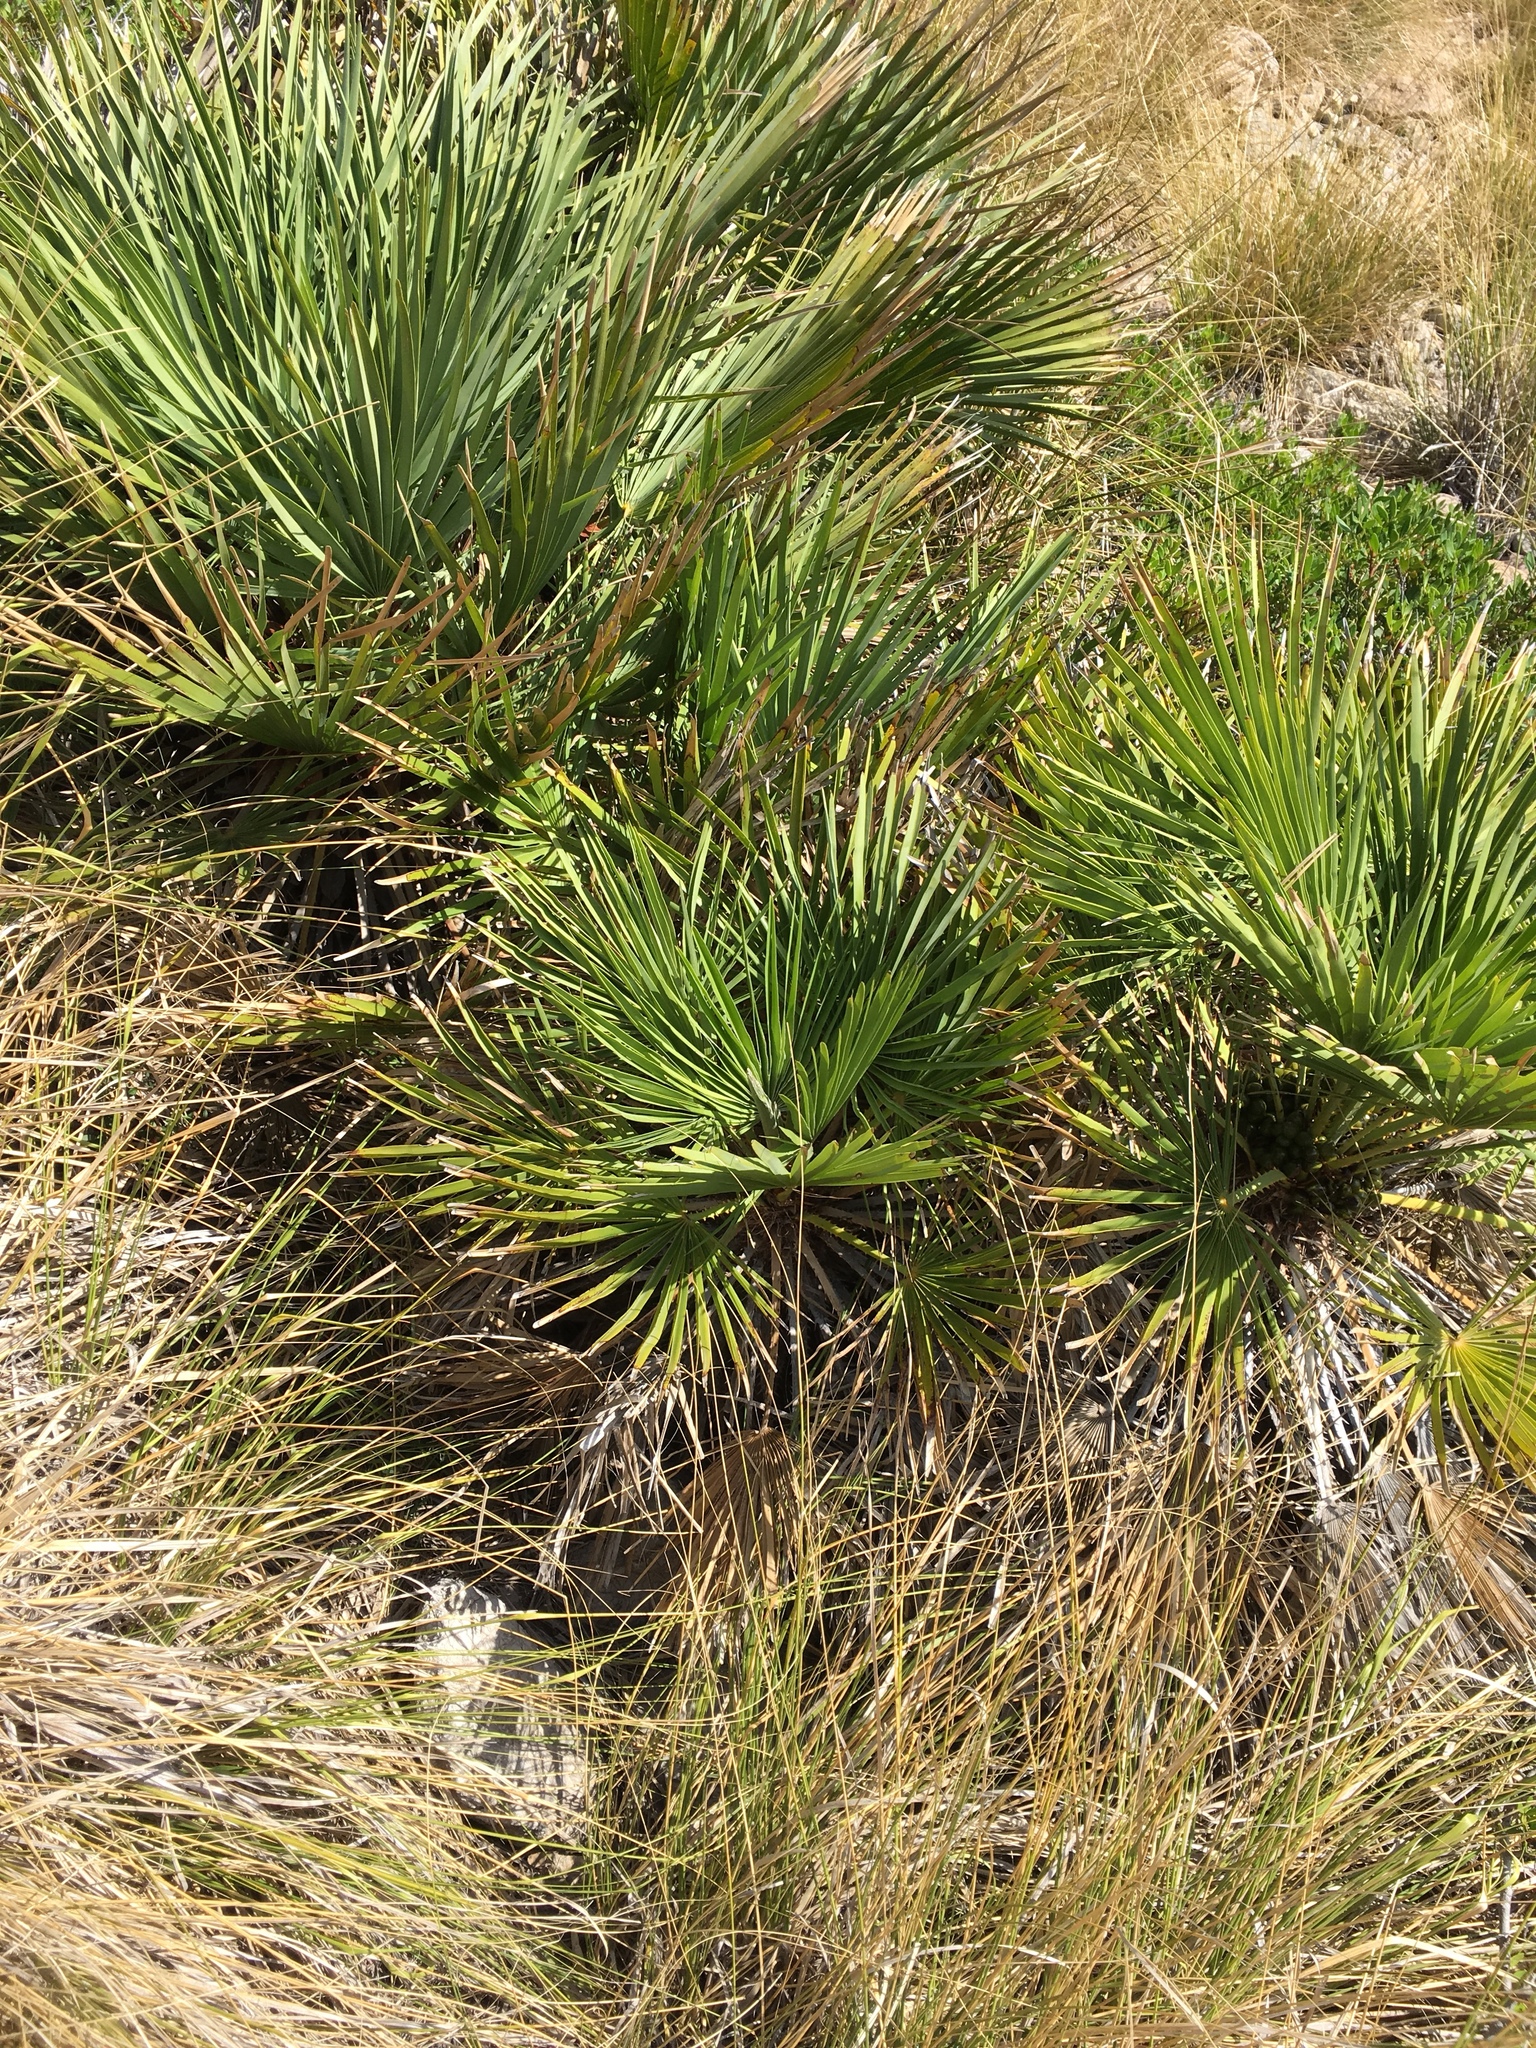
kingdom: Plantae
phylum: Tracheophyta
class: Liliopsida
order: Arecales
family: Arecaceae
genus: Chamaerops
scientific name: Chamaerops humilis
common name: Dwarf fan palm
